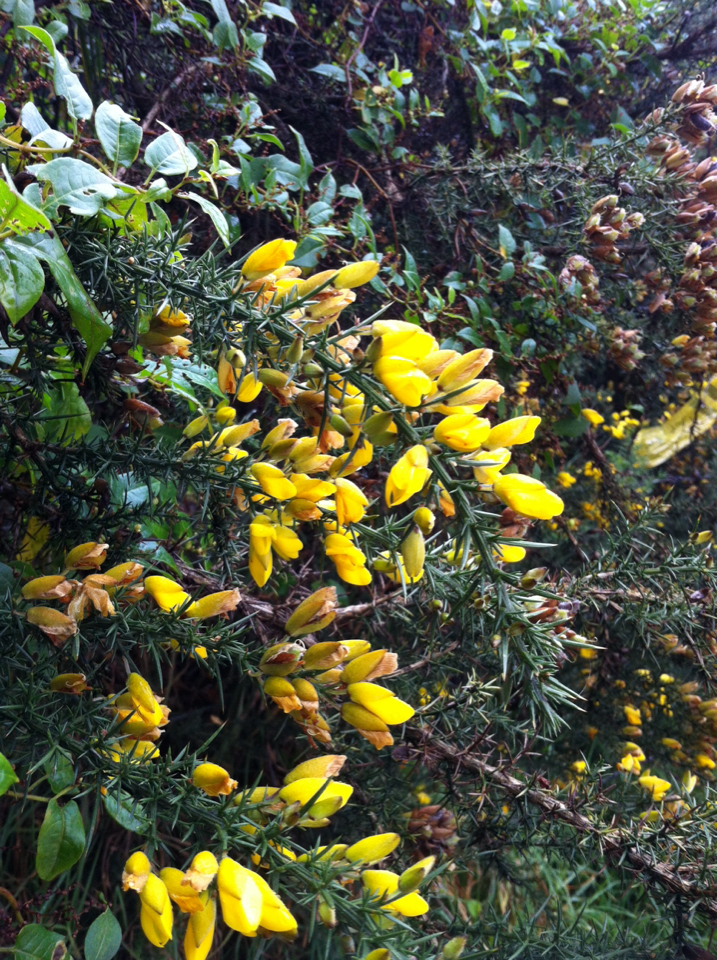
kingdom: Plantae
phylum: Tracheophyta
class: Magnoliopsida
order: Fabales
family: Fabaceae
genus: Ulex
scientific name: Ulex europaeus
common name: Common gorse
